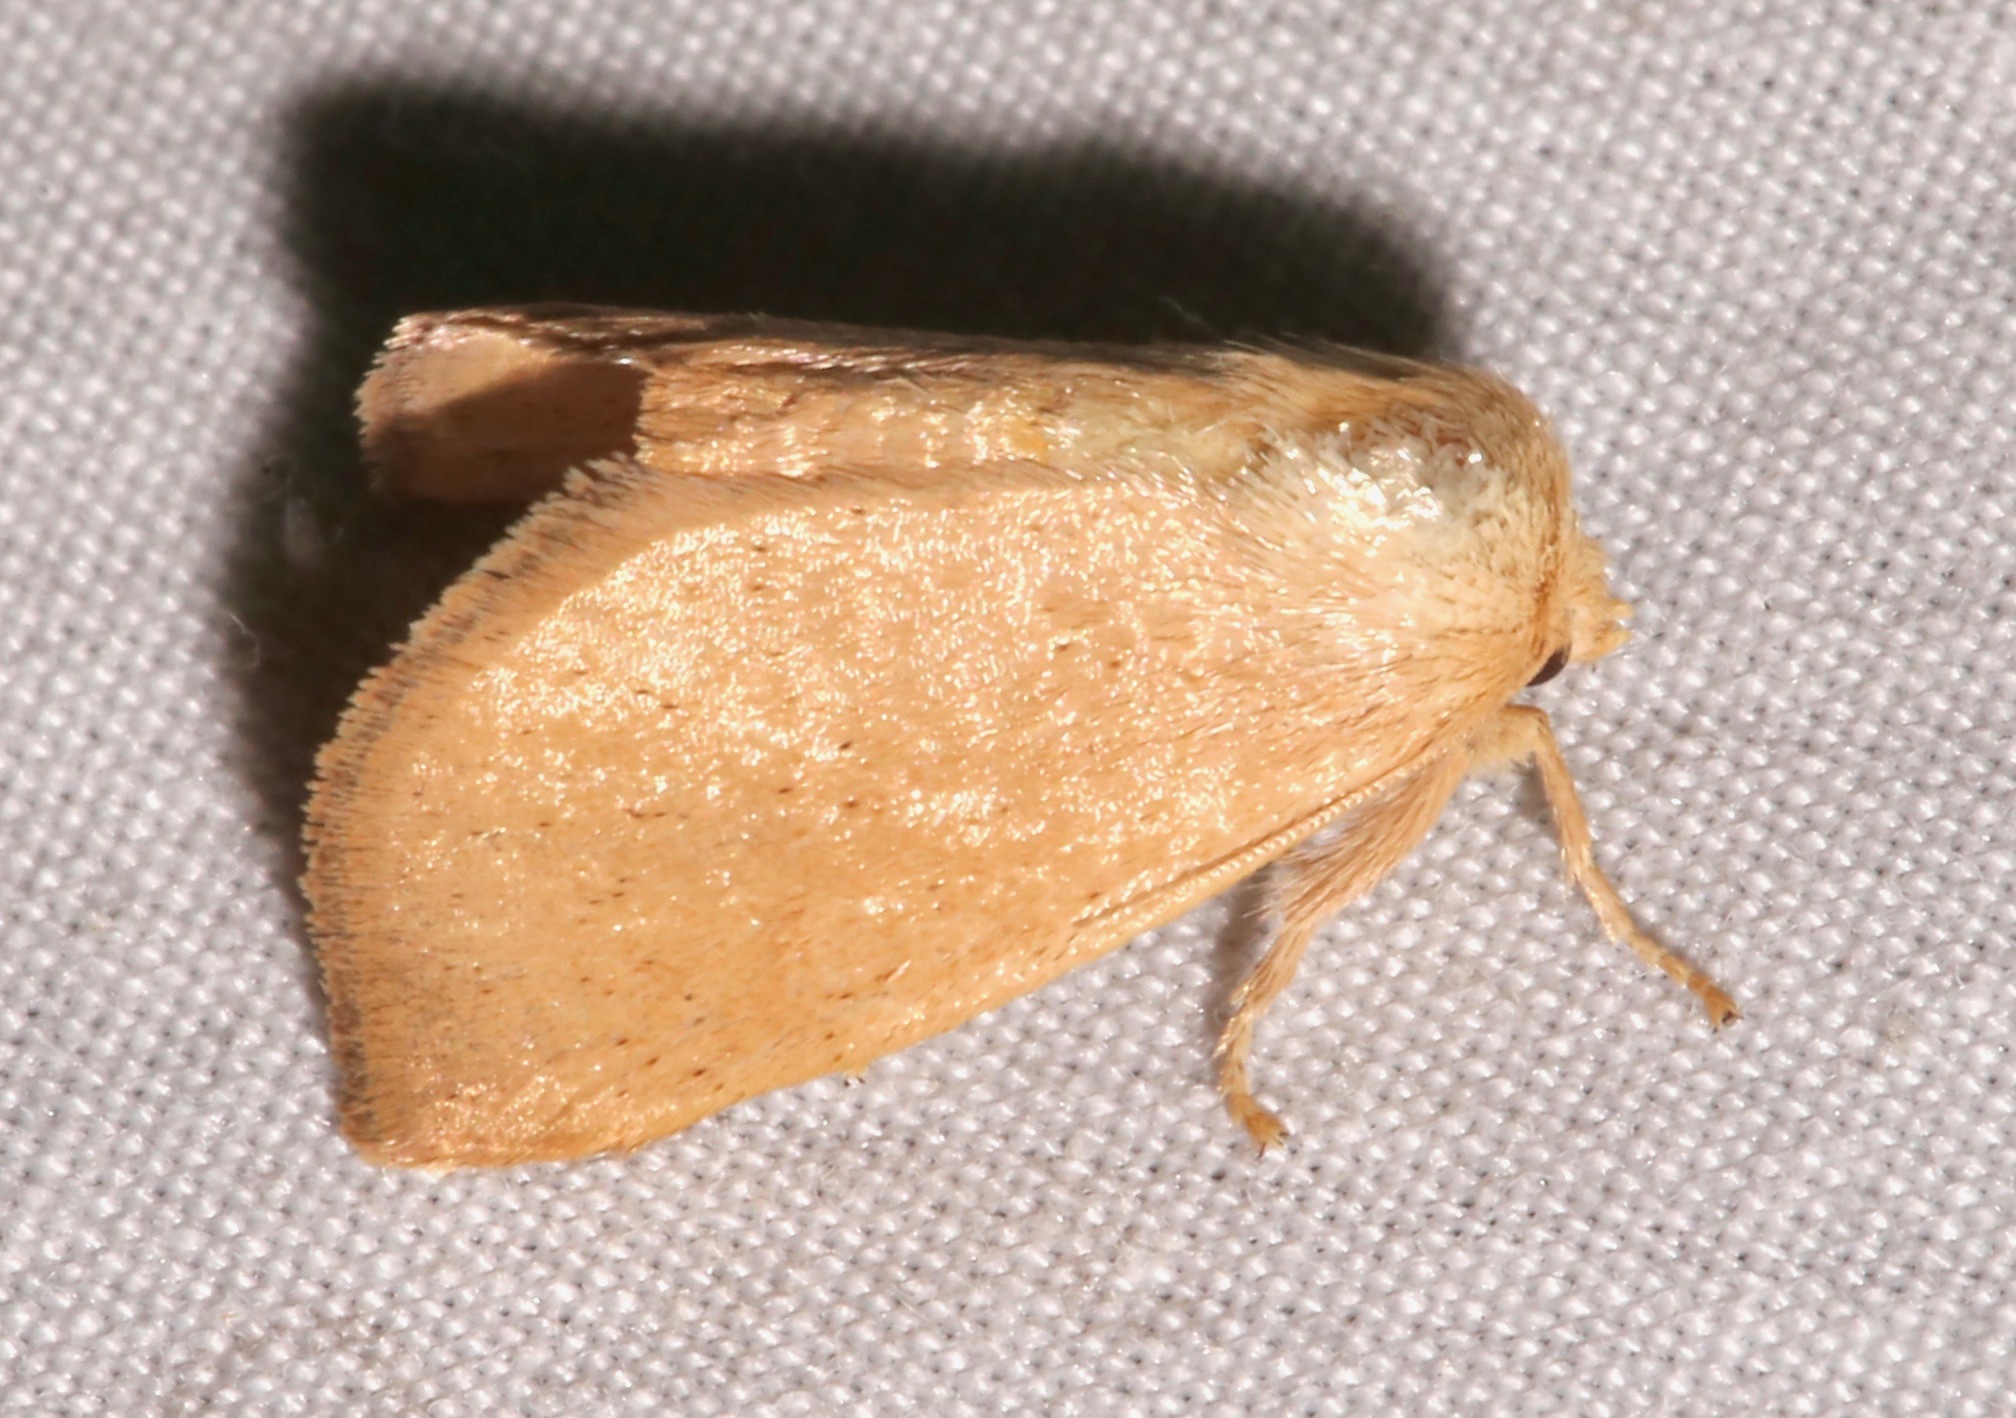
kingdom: Animalia
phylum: Arthropoda
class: Insecta
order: Lepidoptera
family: Limacodidae
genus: Isa
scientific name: Isa schaefferana
